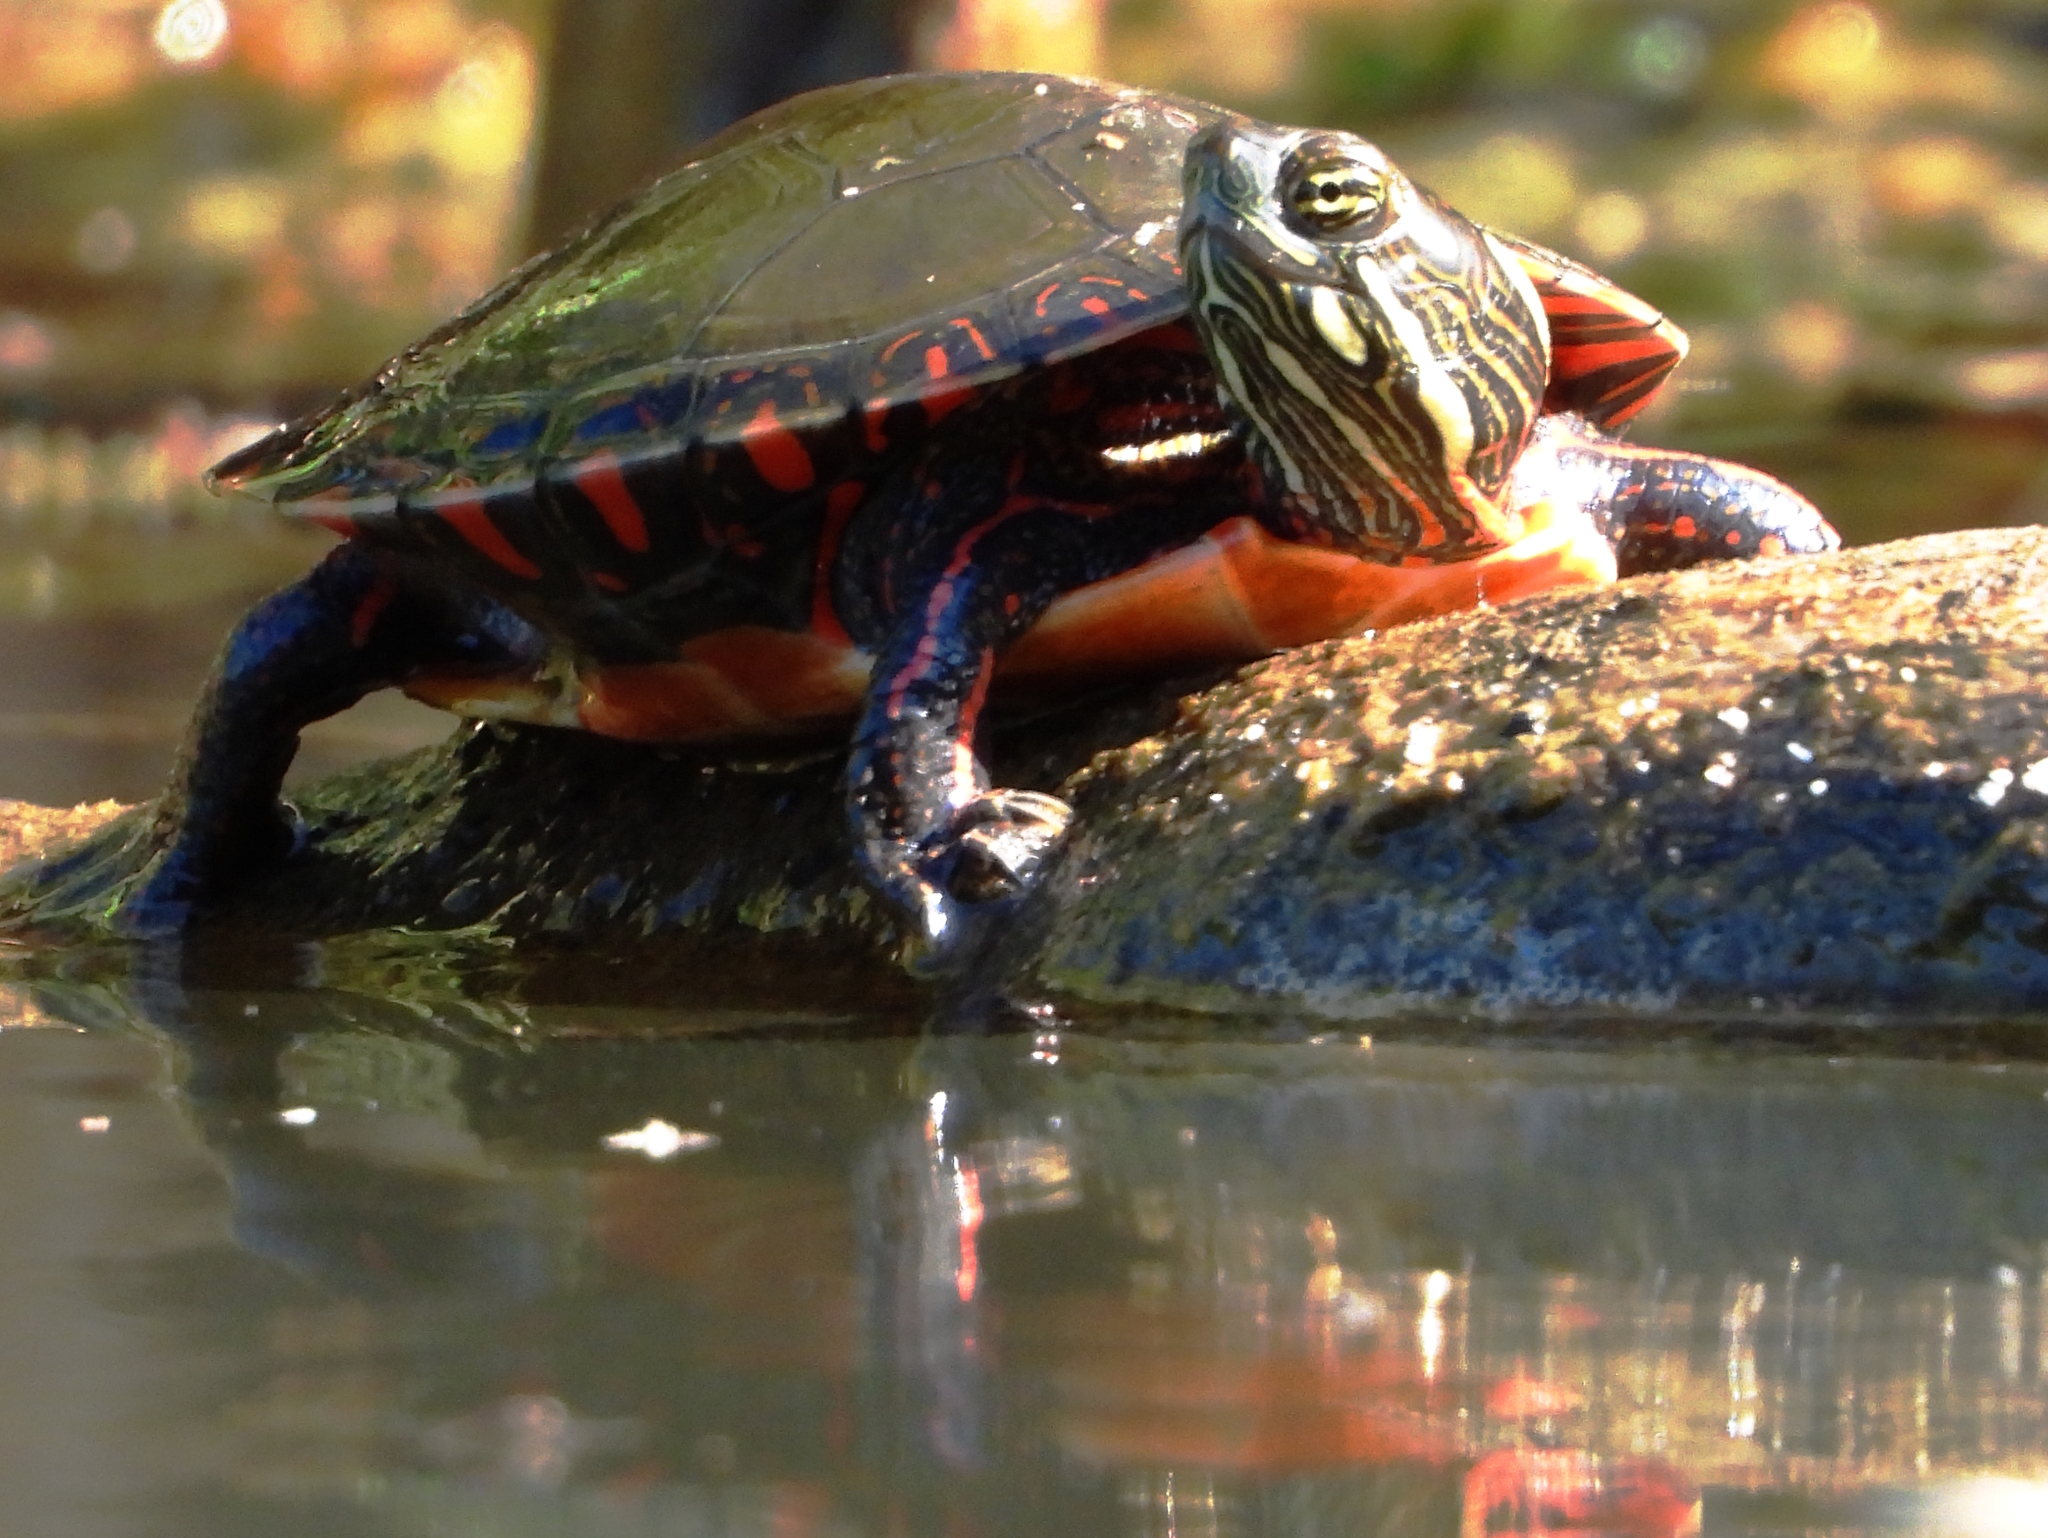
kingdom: Animalia
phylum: Chordata
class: Testudines
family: Emydidae
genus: Chrysemys
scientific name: Chrysemys picta
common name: Painted turtle
